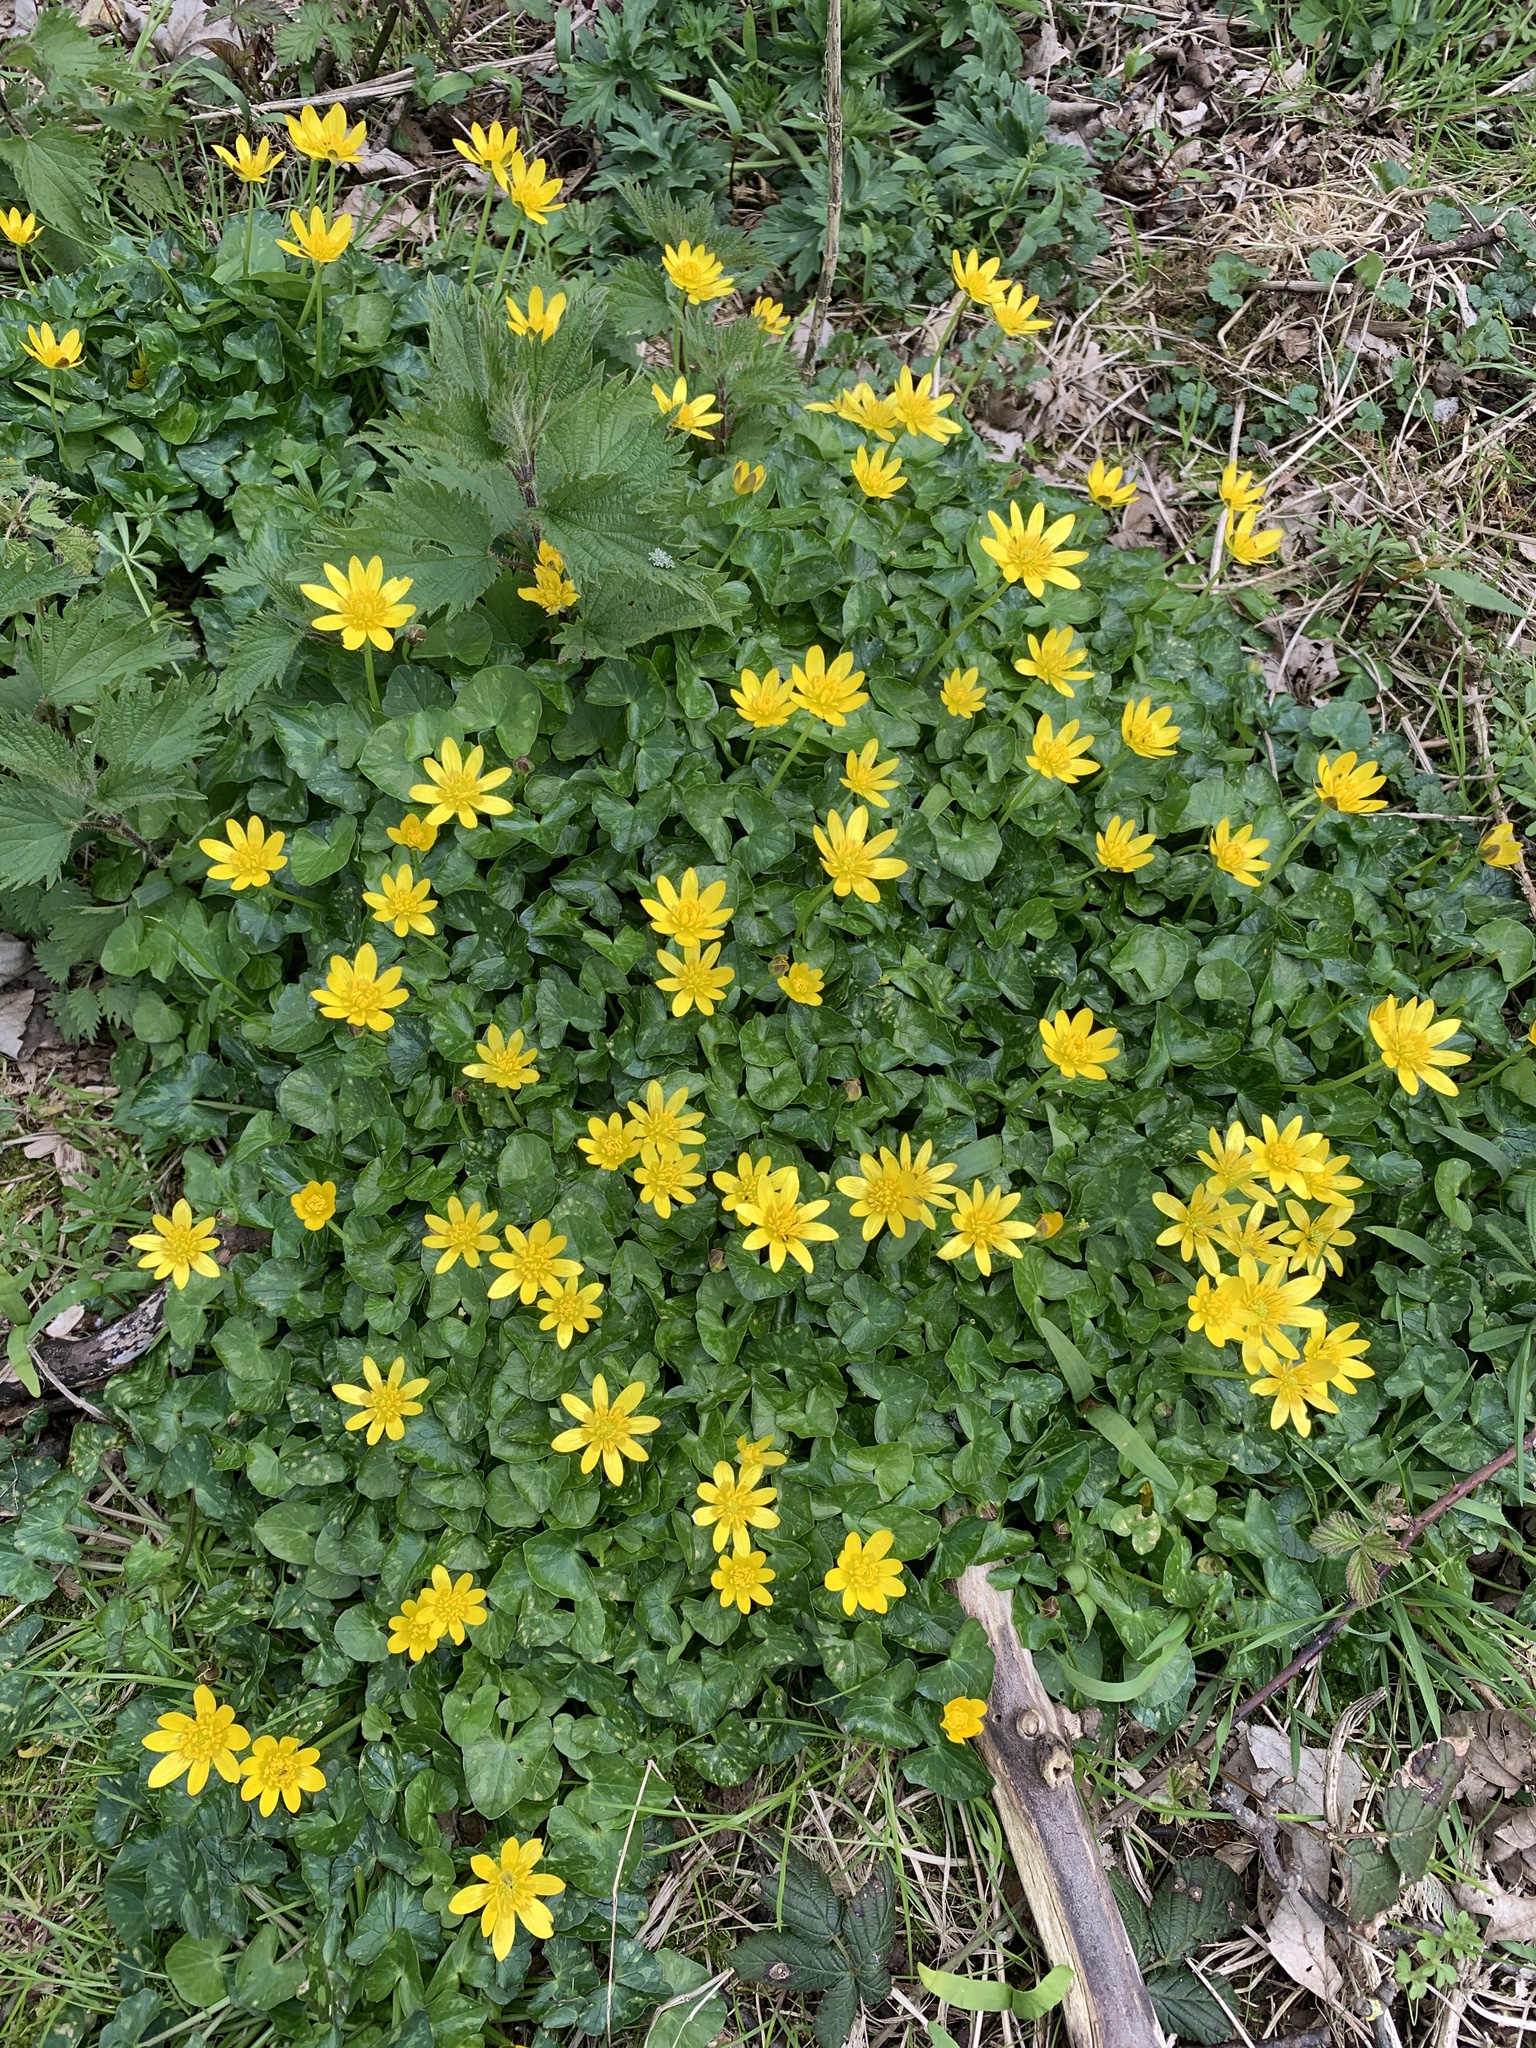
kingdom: Plantae
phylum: Tracheophyta
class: Magnoliopsida
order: Ranunculales
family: Ranunculaceae
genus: Ficaria
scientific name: Ficaria verna
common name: Lesser celandine
